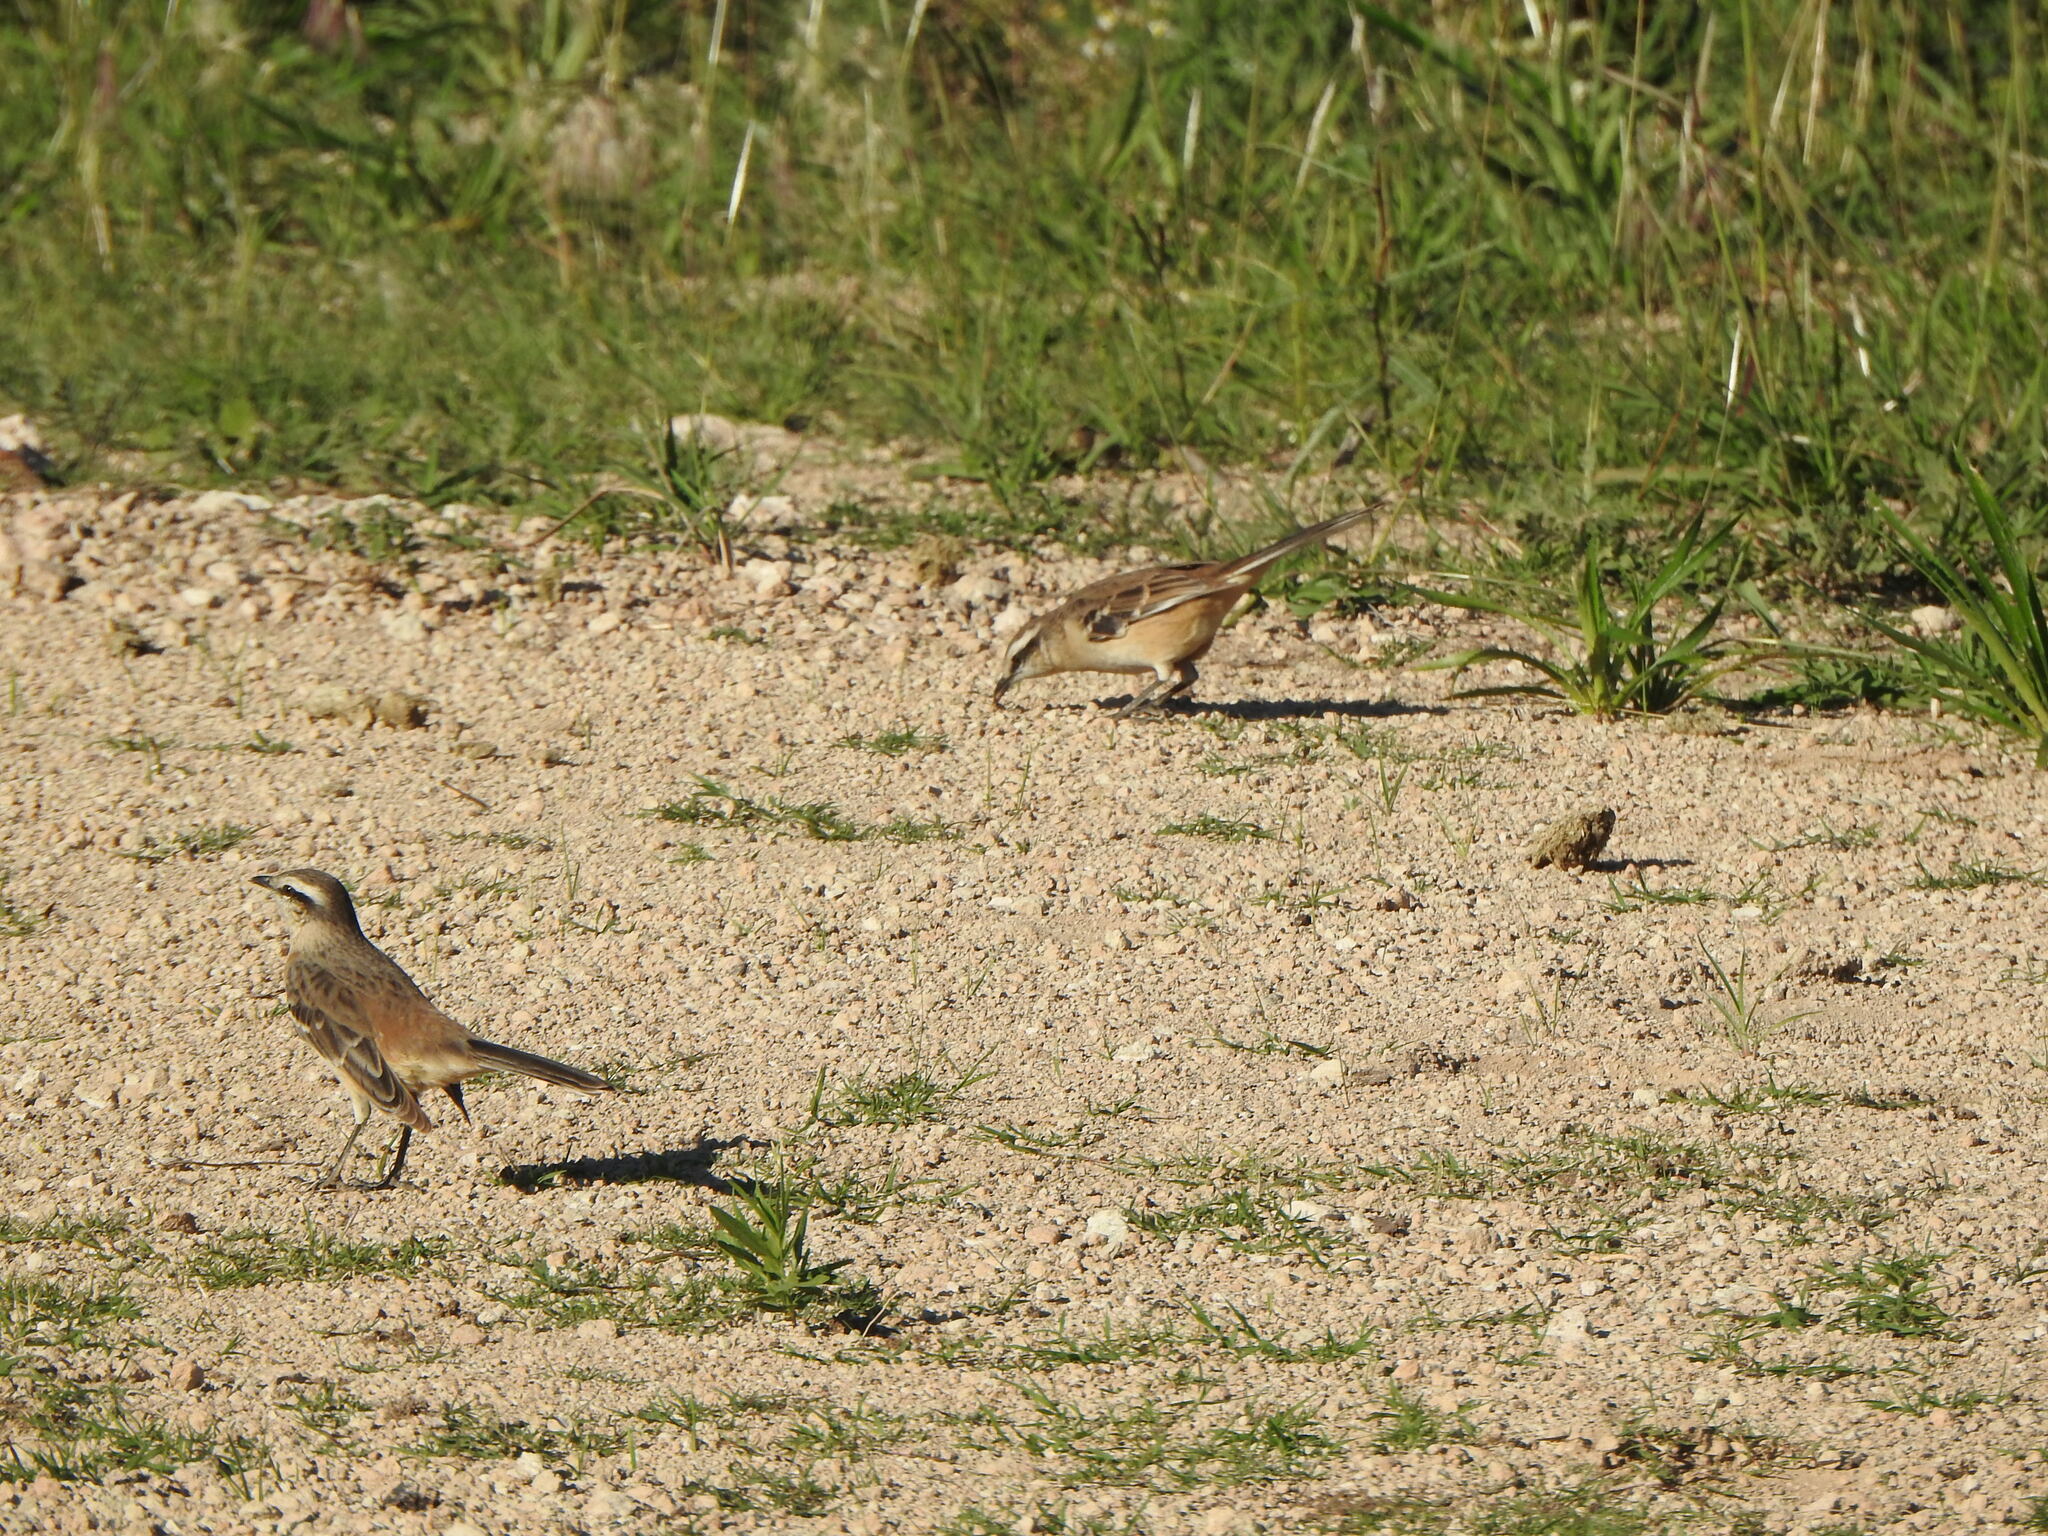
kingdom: Animalia
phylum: Chordata
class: Aves
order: Passeriformes
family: Mimidae
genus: Mimus
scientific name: Mimus saturninus
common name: Chalk-browed mockingbird
